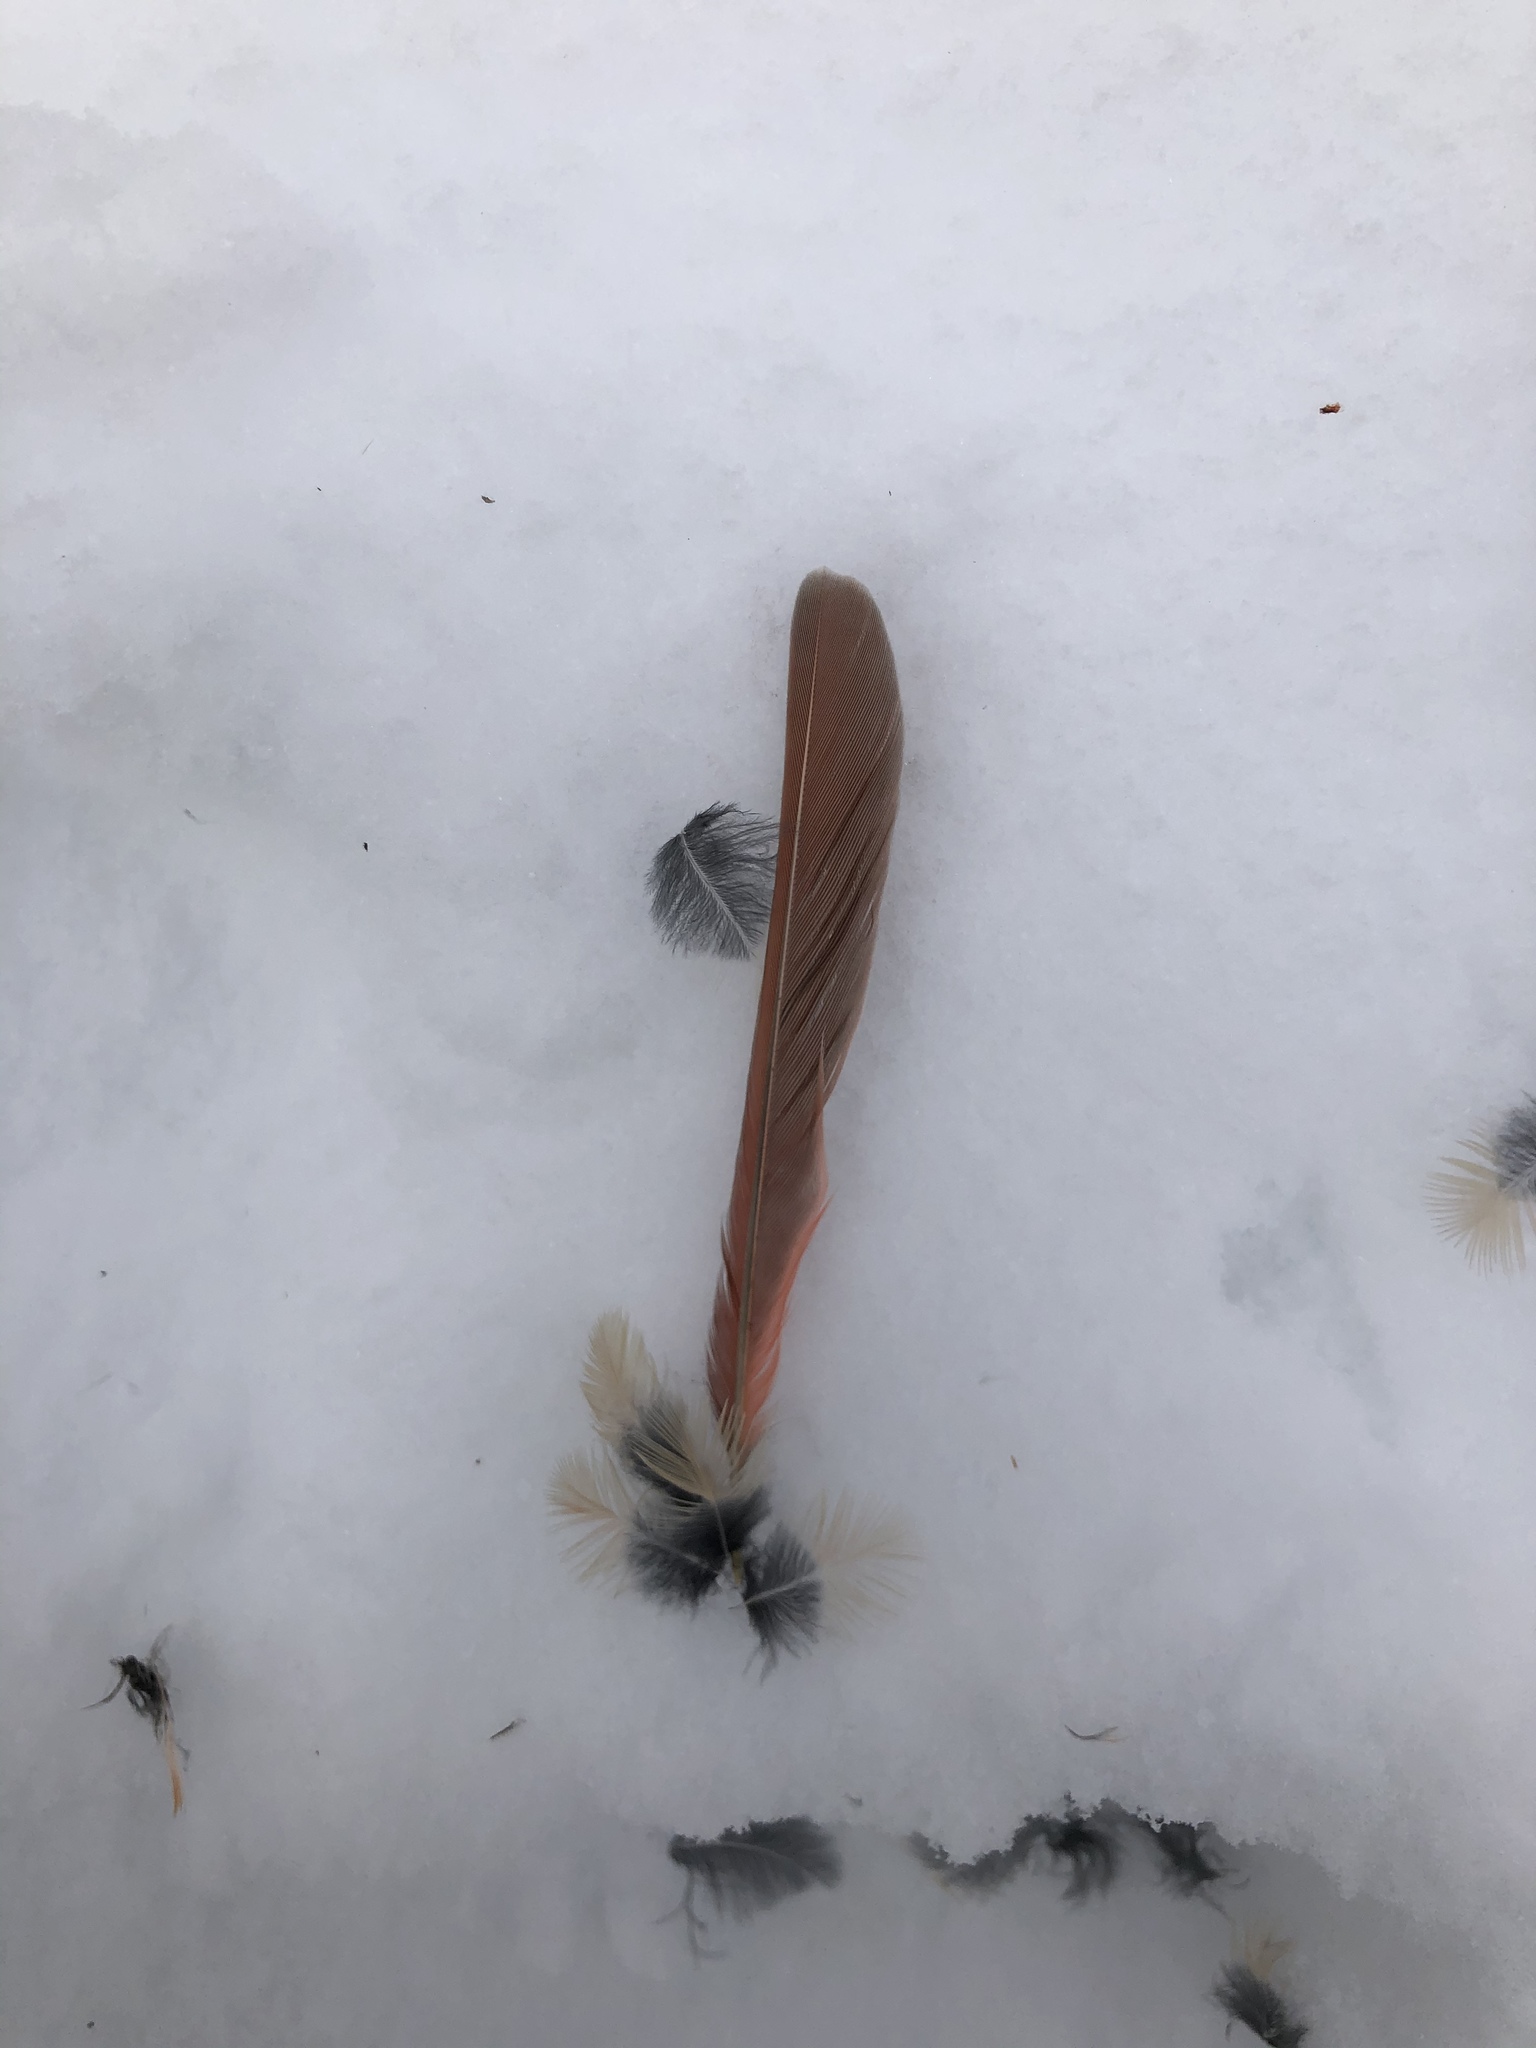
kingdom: Animalia
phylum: Chordata
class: Aves
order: Passeriformes
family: Cardinalidae
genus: Cardinalis
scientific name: Cardinalis cardinalis
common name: Northern cardinal
